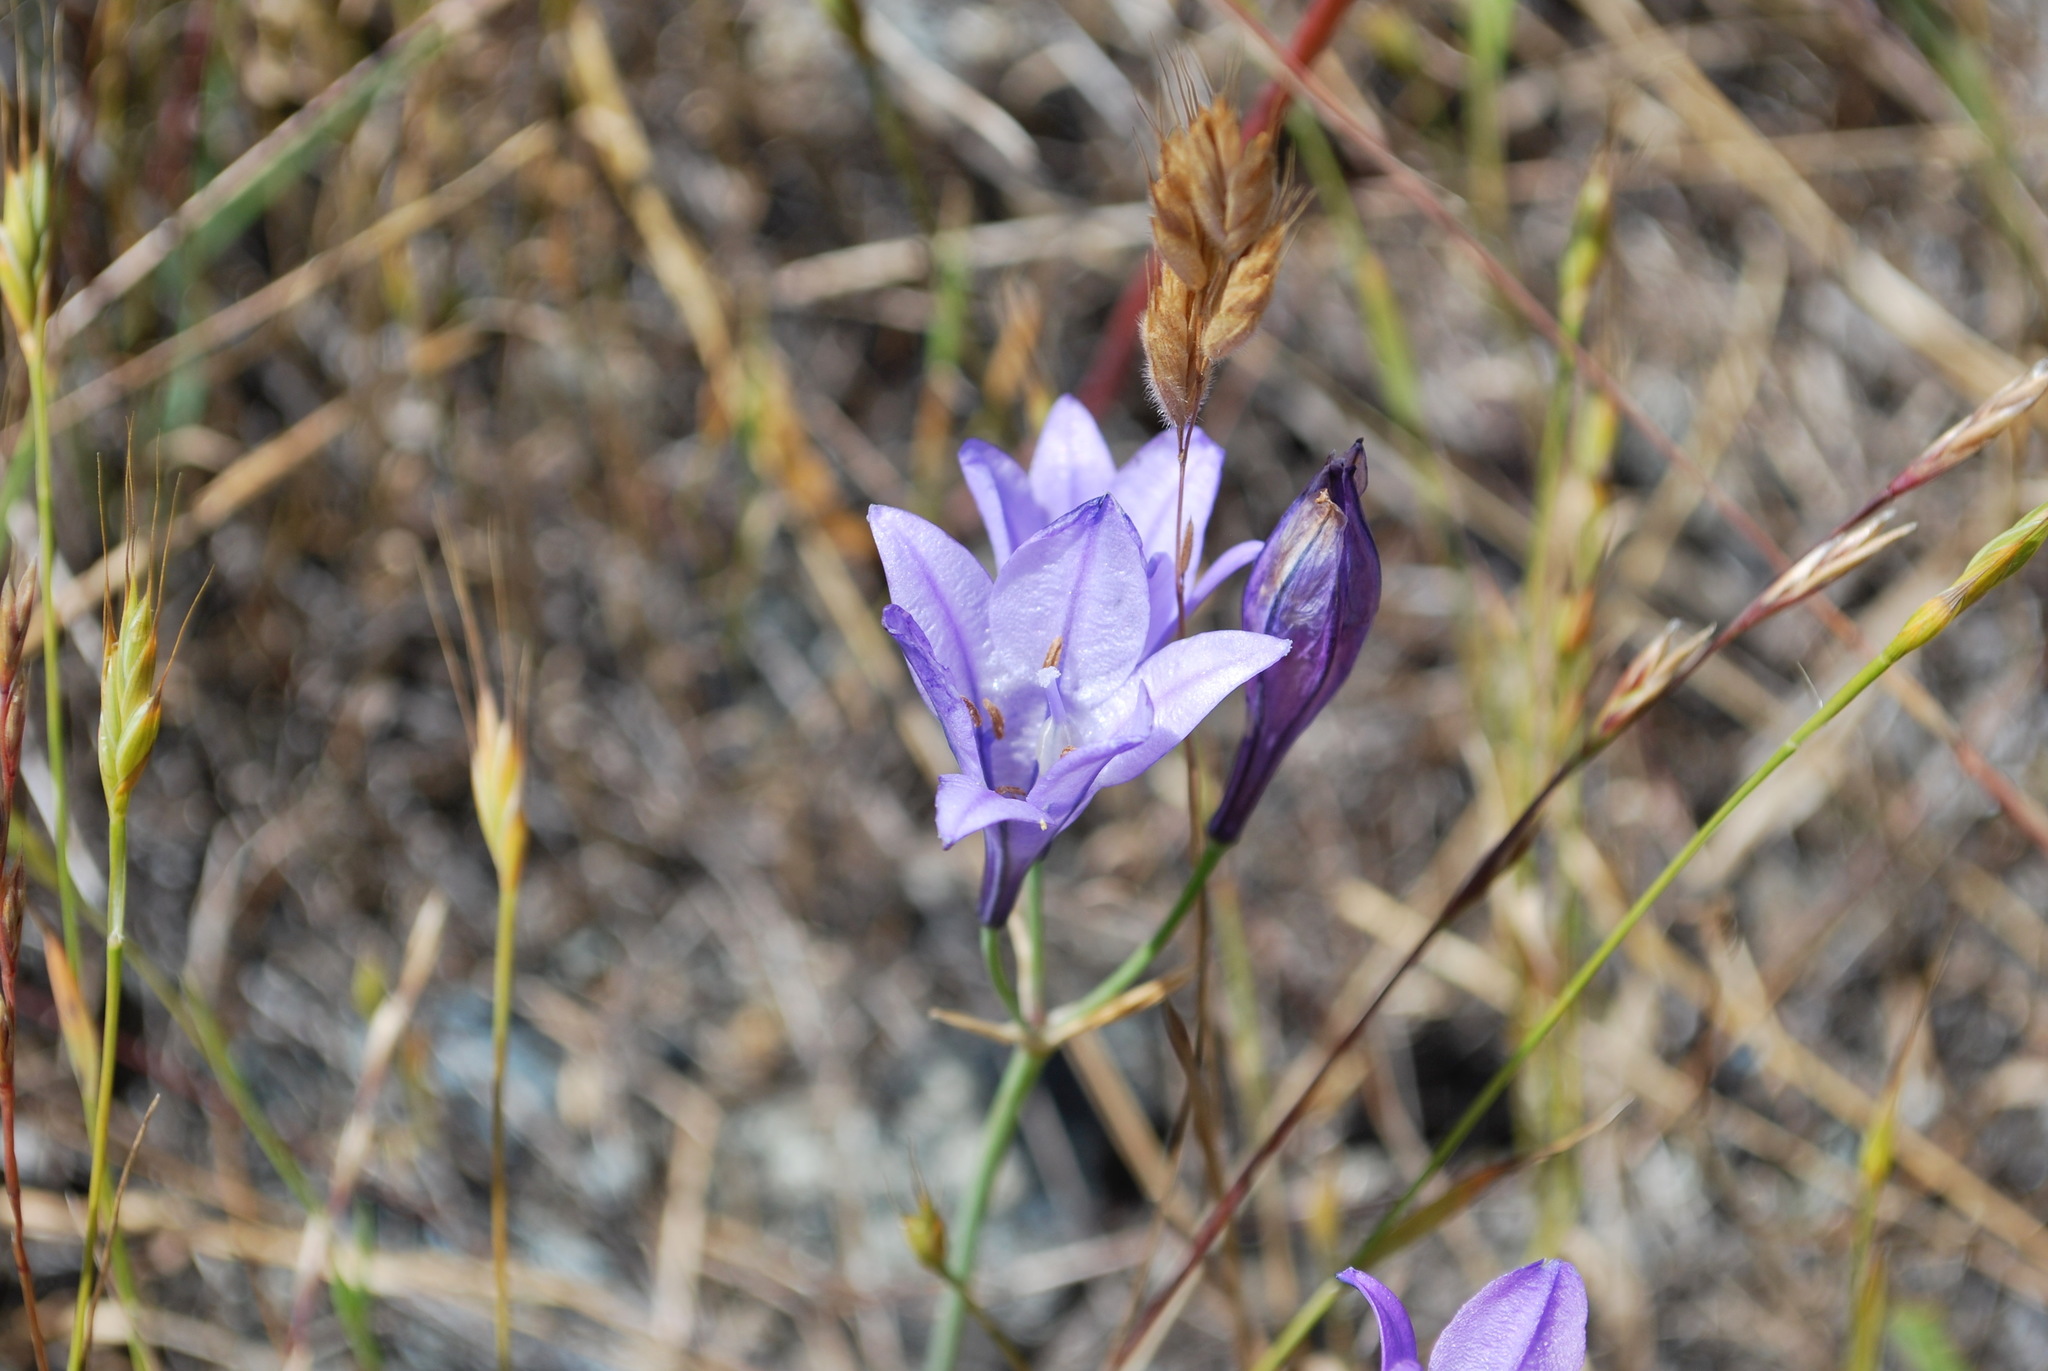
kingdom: Plantae
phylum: Tracheophyta
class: Liliopsida
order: Asparagales
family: Asparagaceae
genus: Triteleia
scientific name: Triteleia laxa
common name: Triplet-lily
